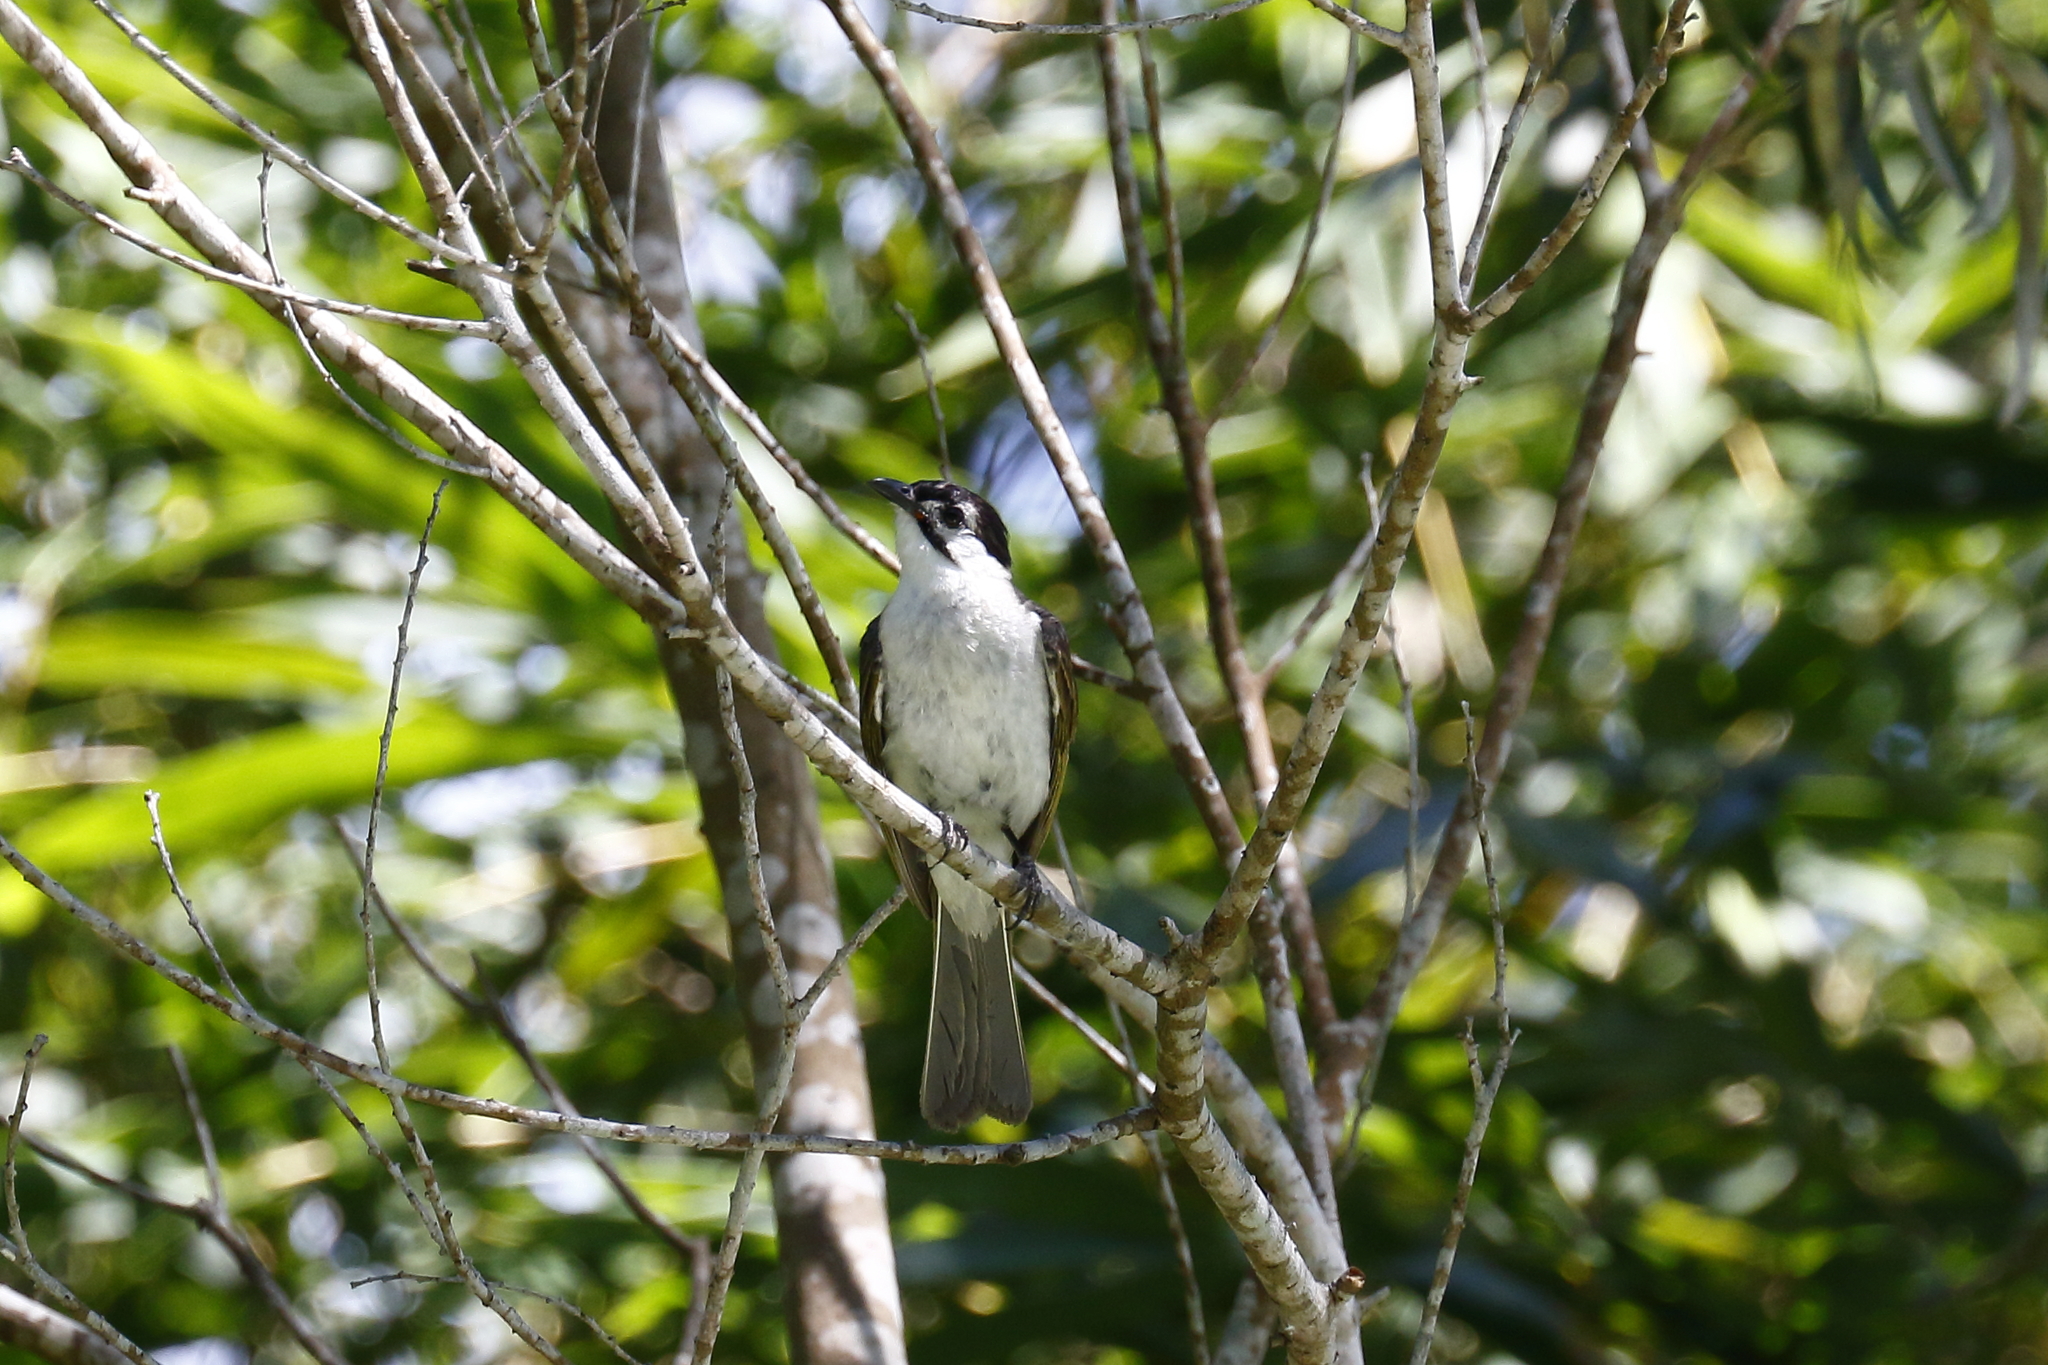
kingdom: Animalia
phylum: Chordata
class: Aves
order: Passeriformes
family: Pycnonotidae
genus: Pycnonotus
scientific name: Pycnonotus taivanus
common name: Styan's bulbul
